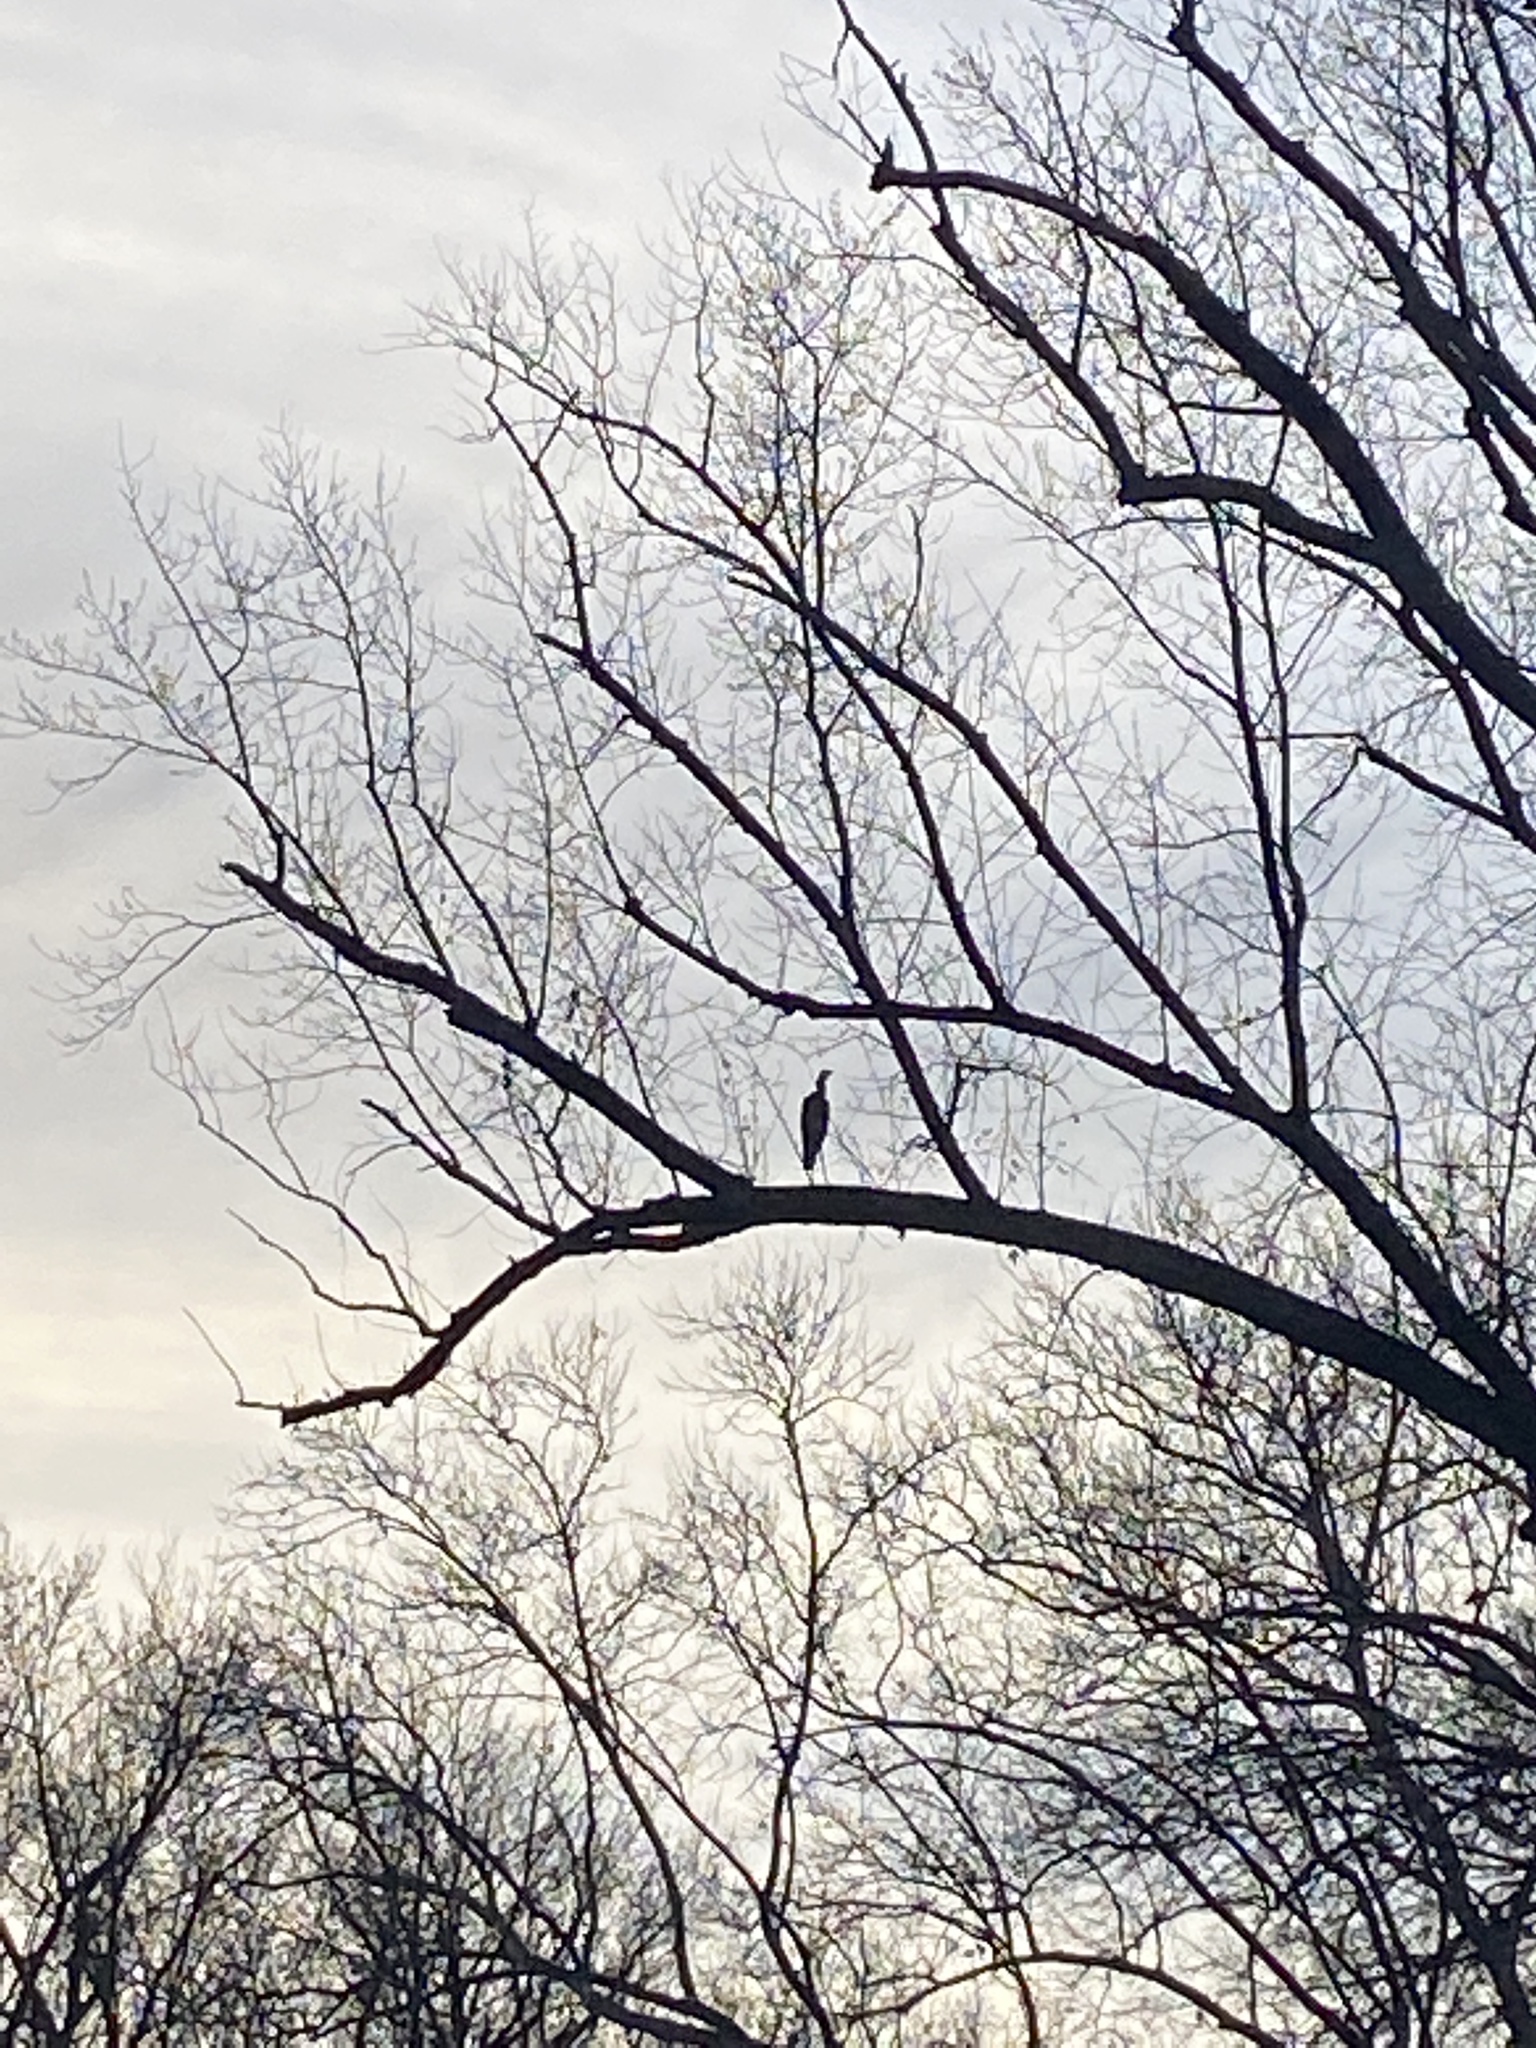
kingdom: Animalia
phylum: Chordata
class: Aves
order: Pelecaniformes
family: Ardeidae
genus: Ardea
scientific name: Ardea herodias
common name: Great blue heron
